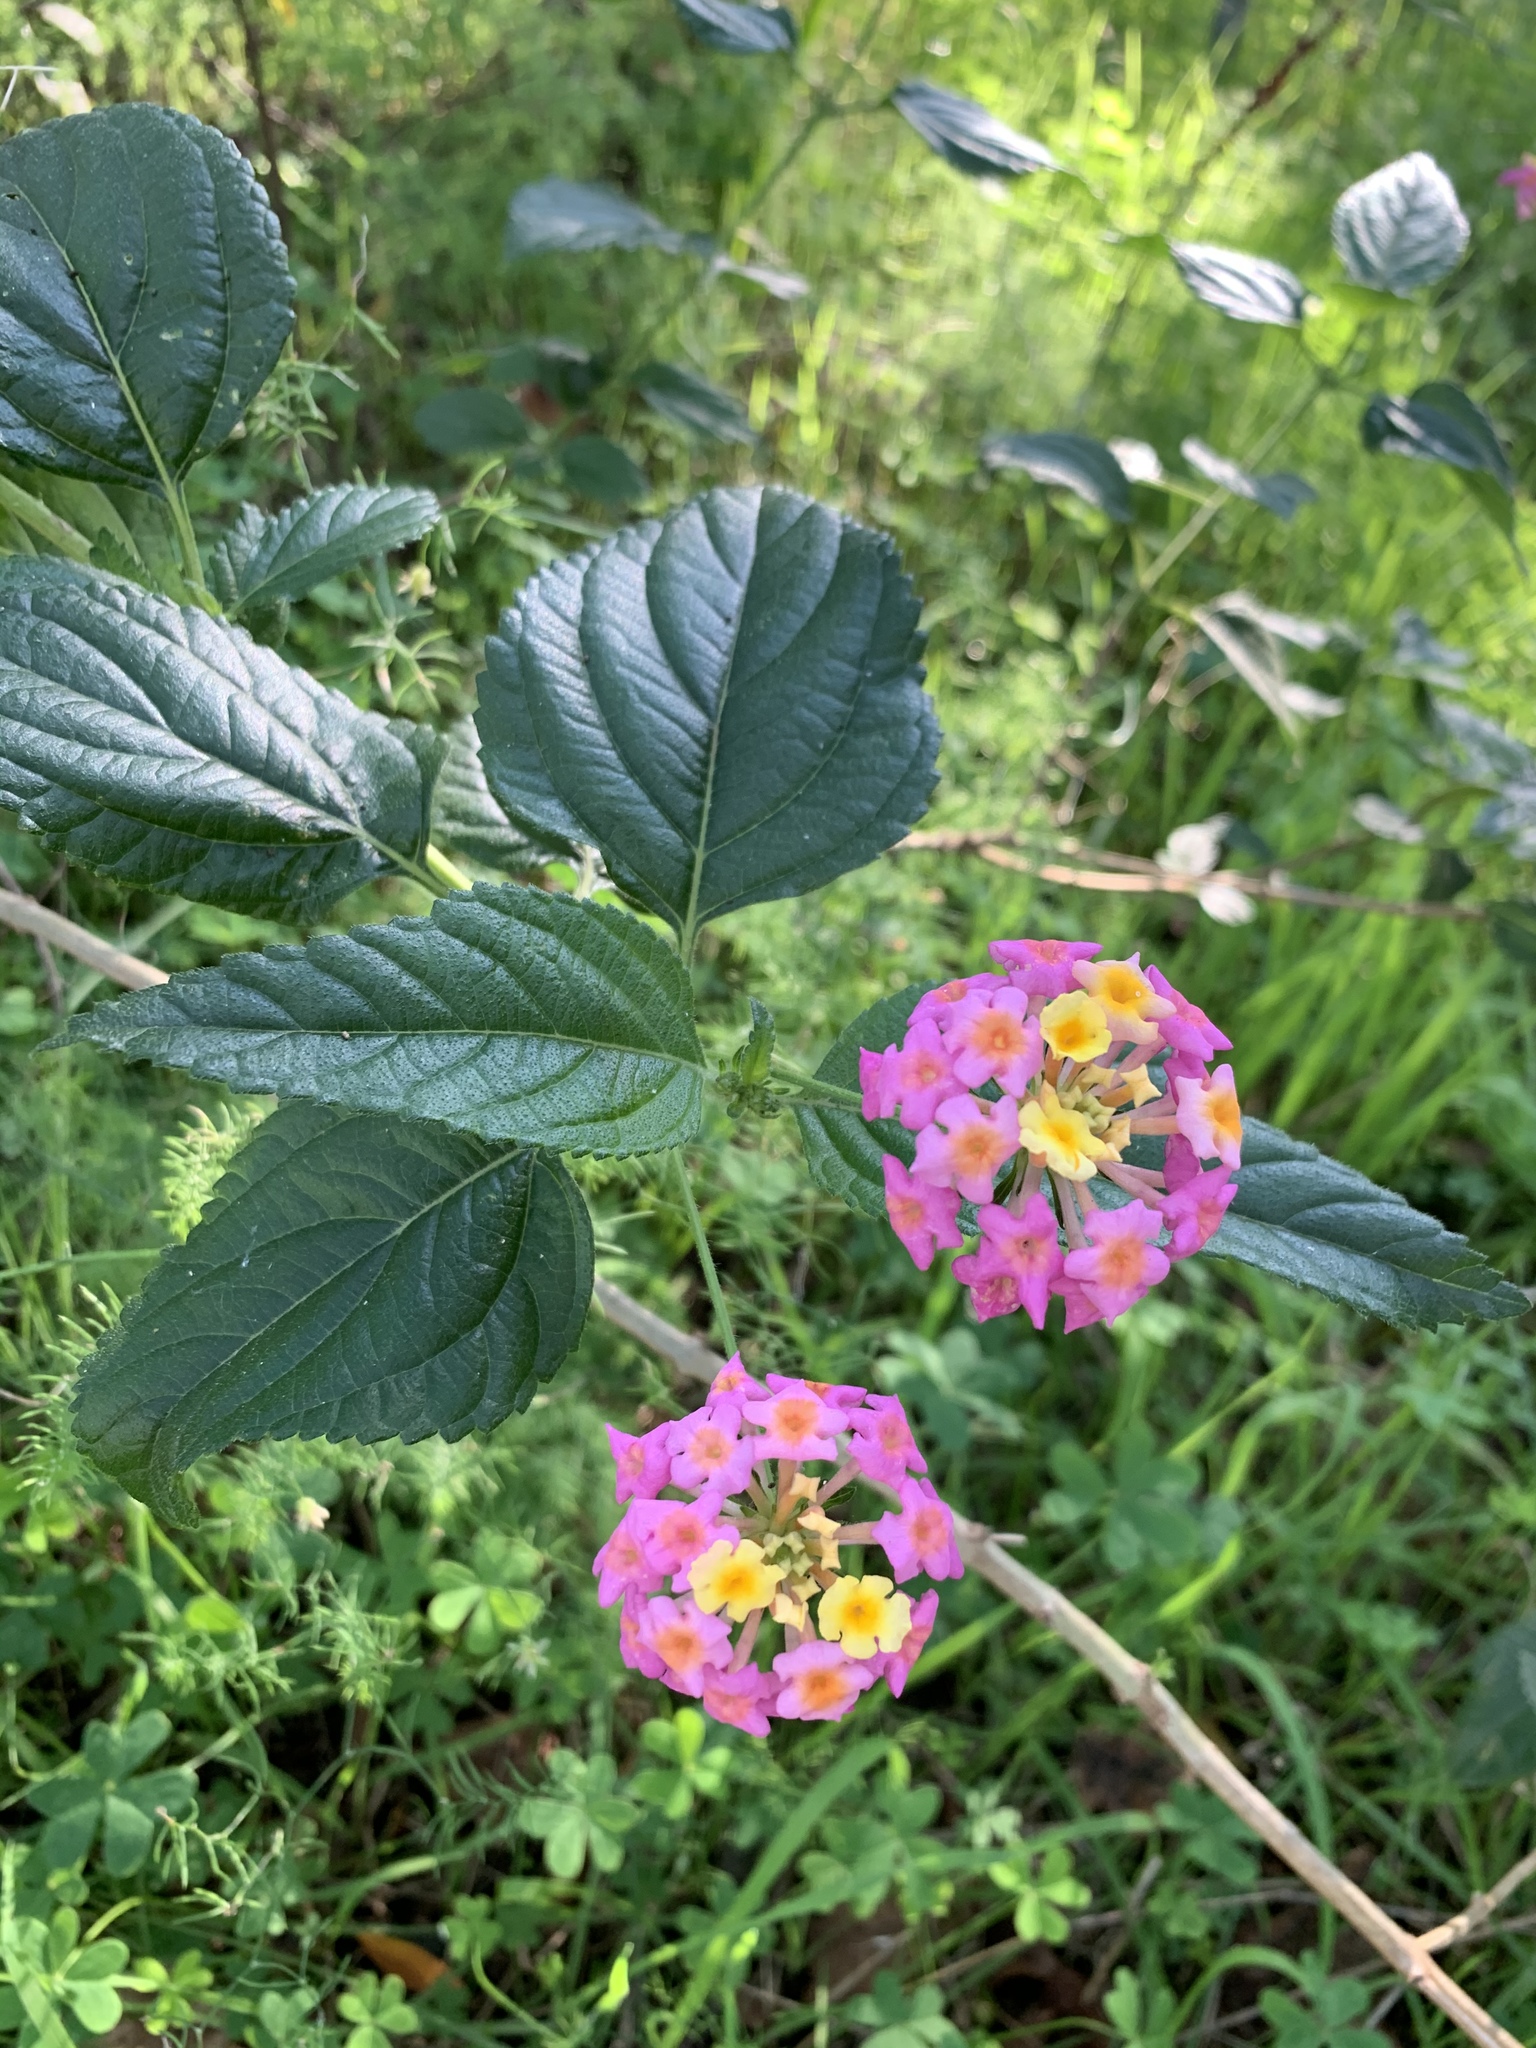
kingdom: Plantae
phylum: Tracheophyta
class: Magnoliopsida
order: Lamiales
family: Verbenaceae
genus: Lantana
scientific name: Lantana camara
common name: Lantana
